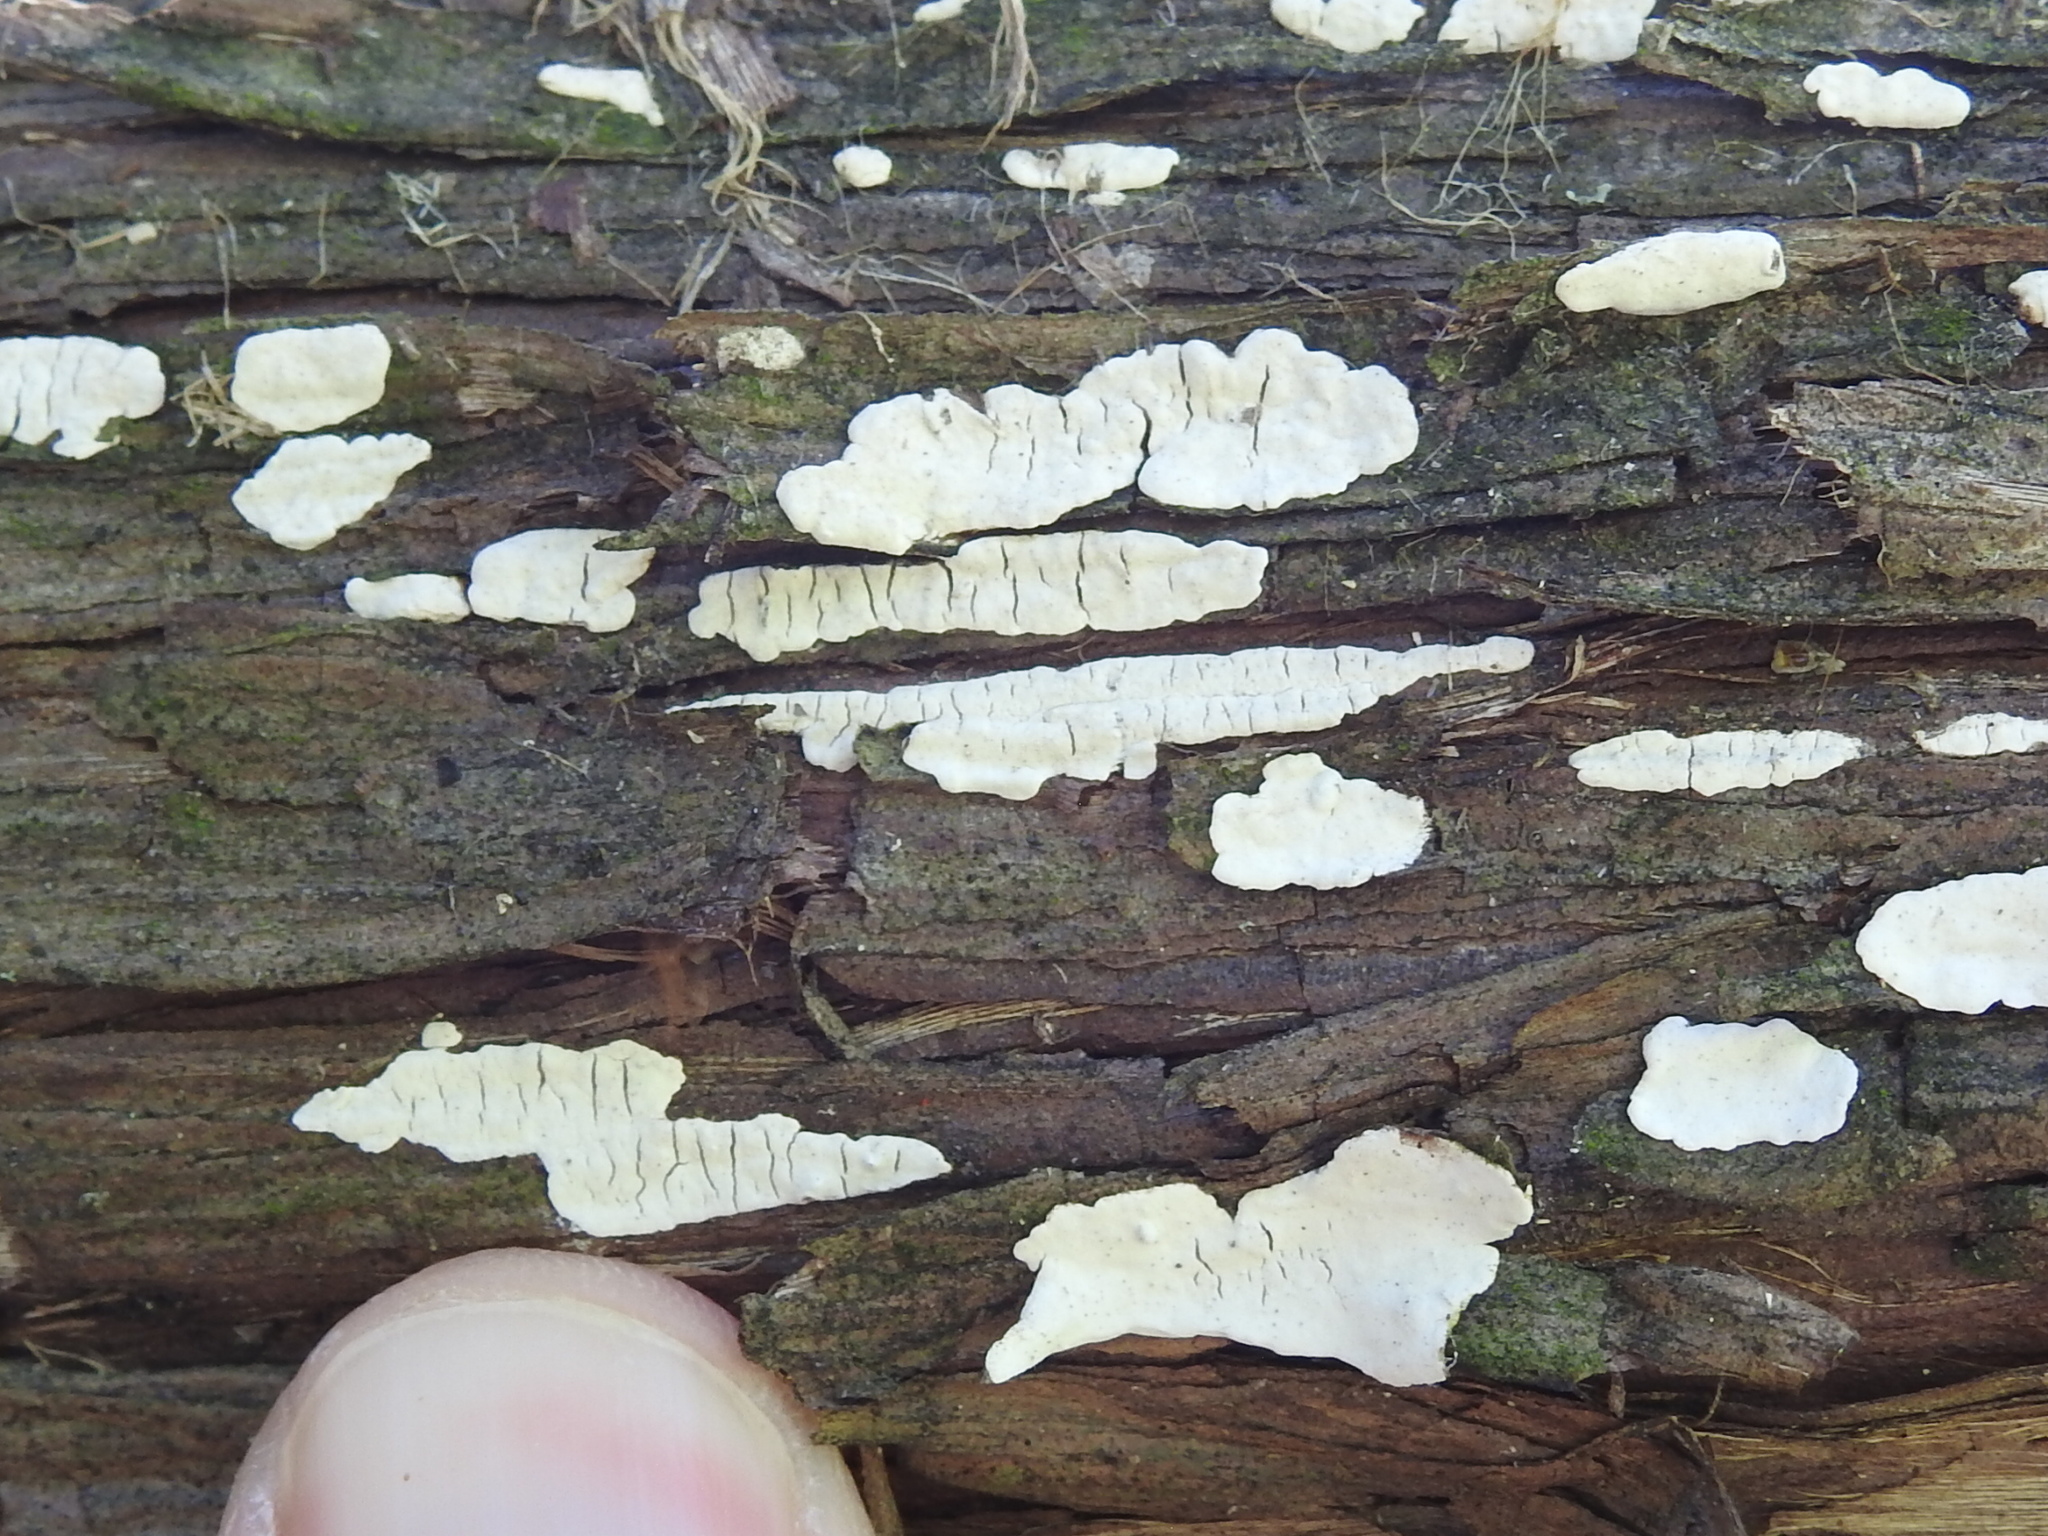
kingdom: Fungi
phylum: Basidiomycota
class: Agaricomycetes
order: Agaricales
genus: Dendrothele
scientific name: Dendrothele nivosa
